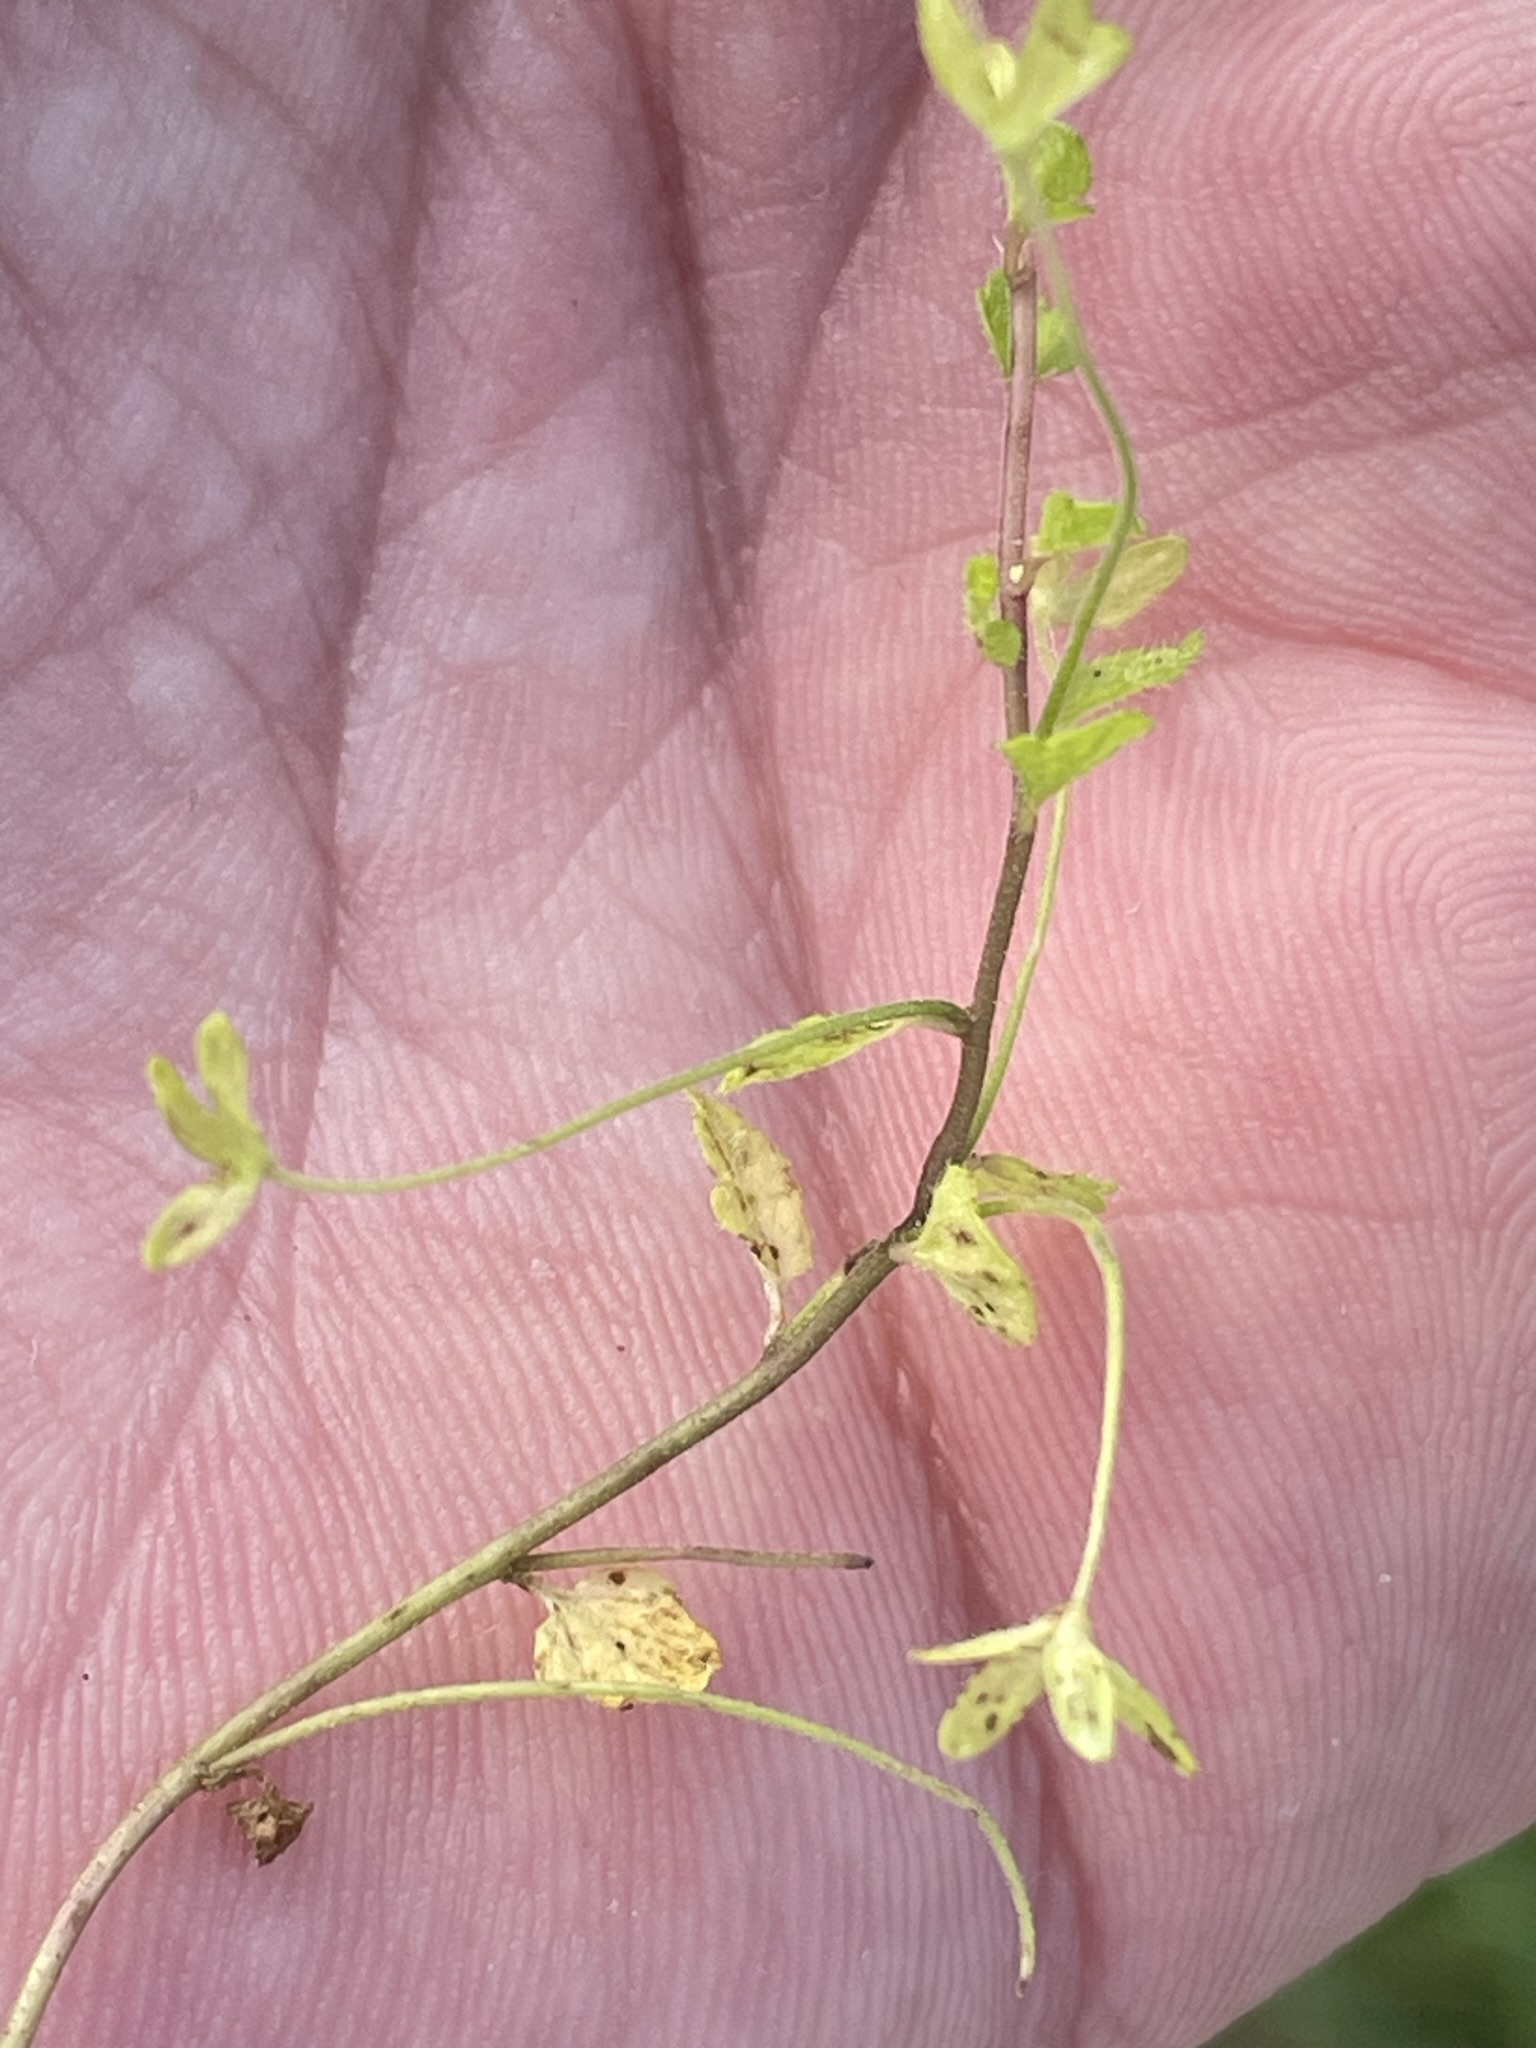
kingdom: Plantae
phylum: Tracheophyta
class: Magnoliopsida
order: Lamiales
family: Plantaginaceae
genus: Veronica
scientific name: Veronica filiformis
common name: Slender speedwell
